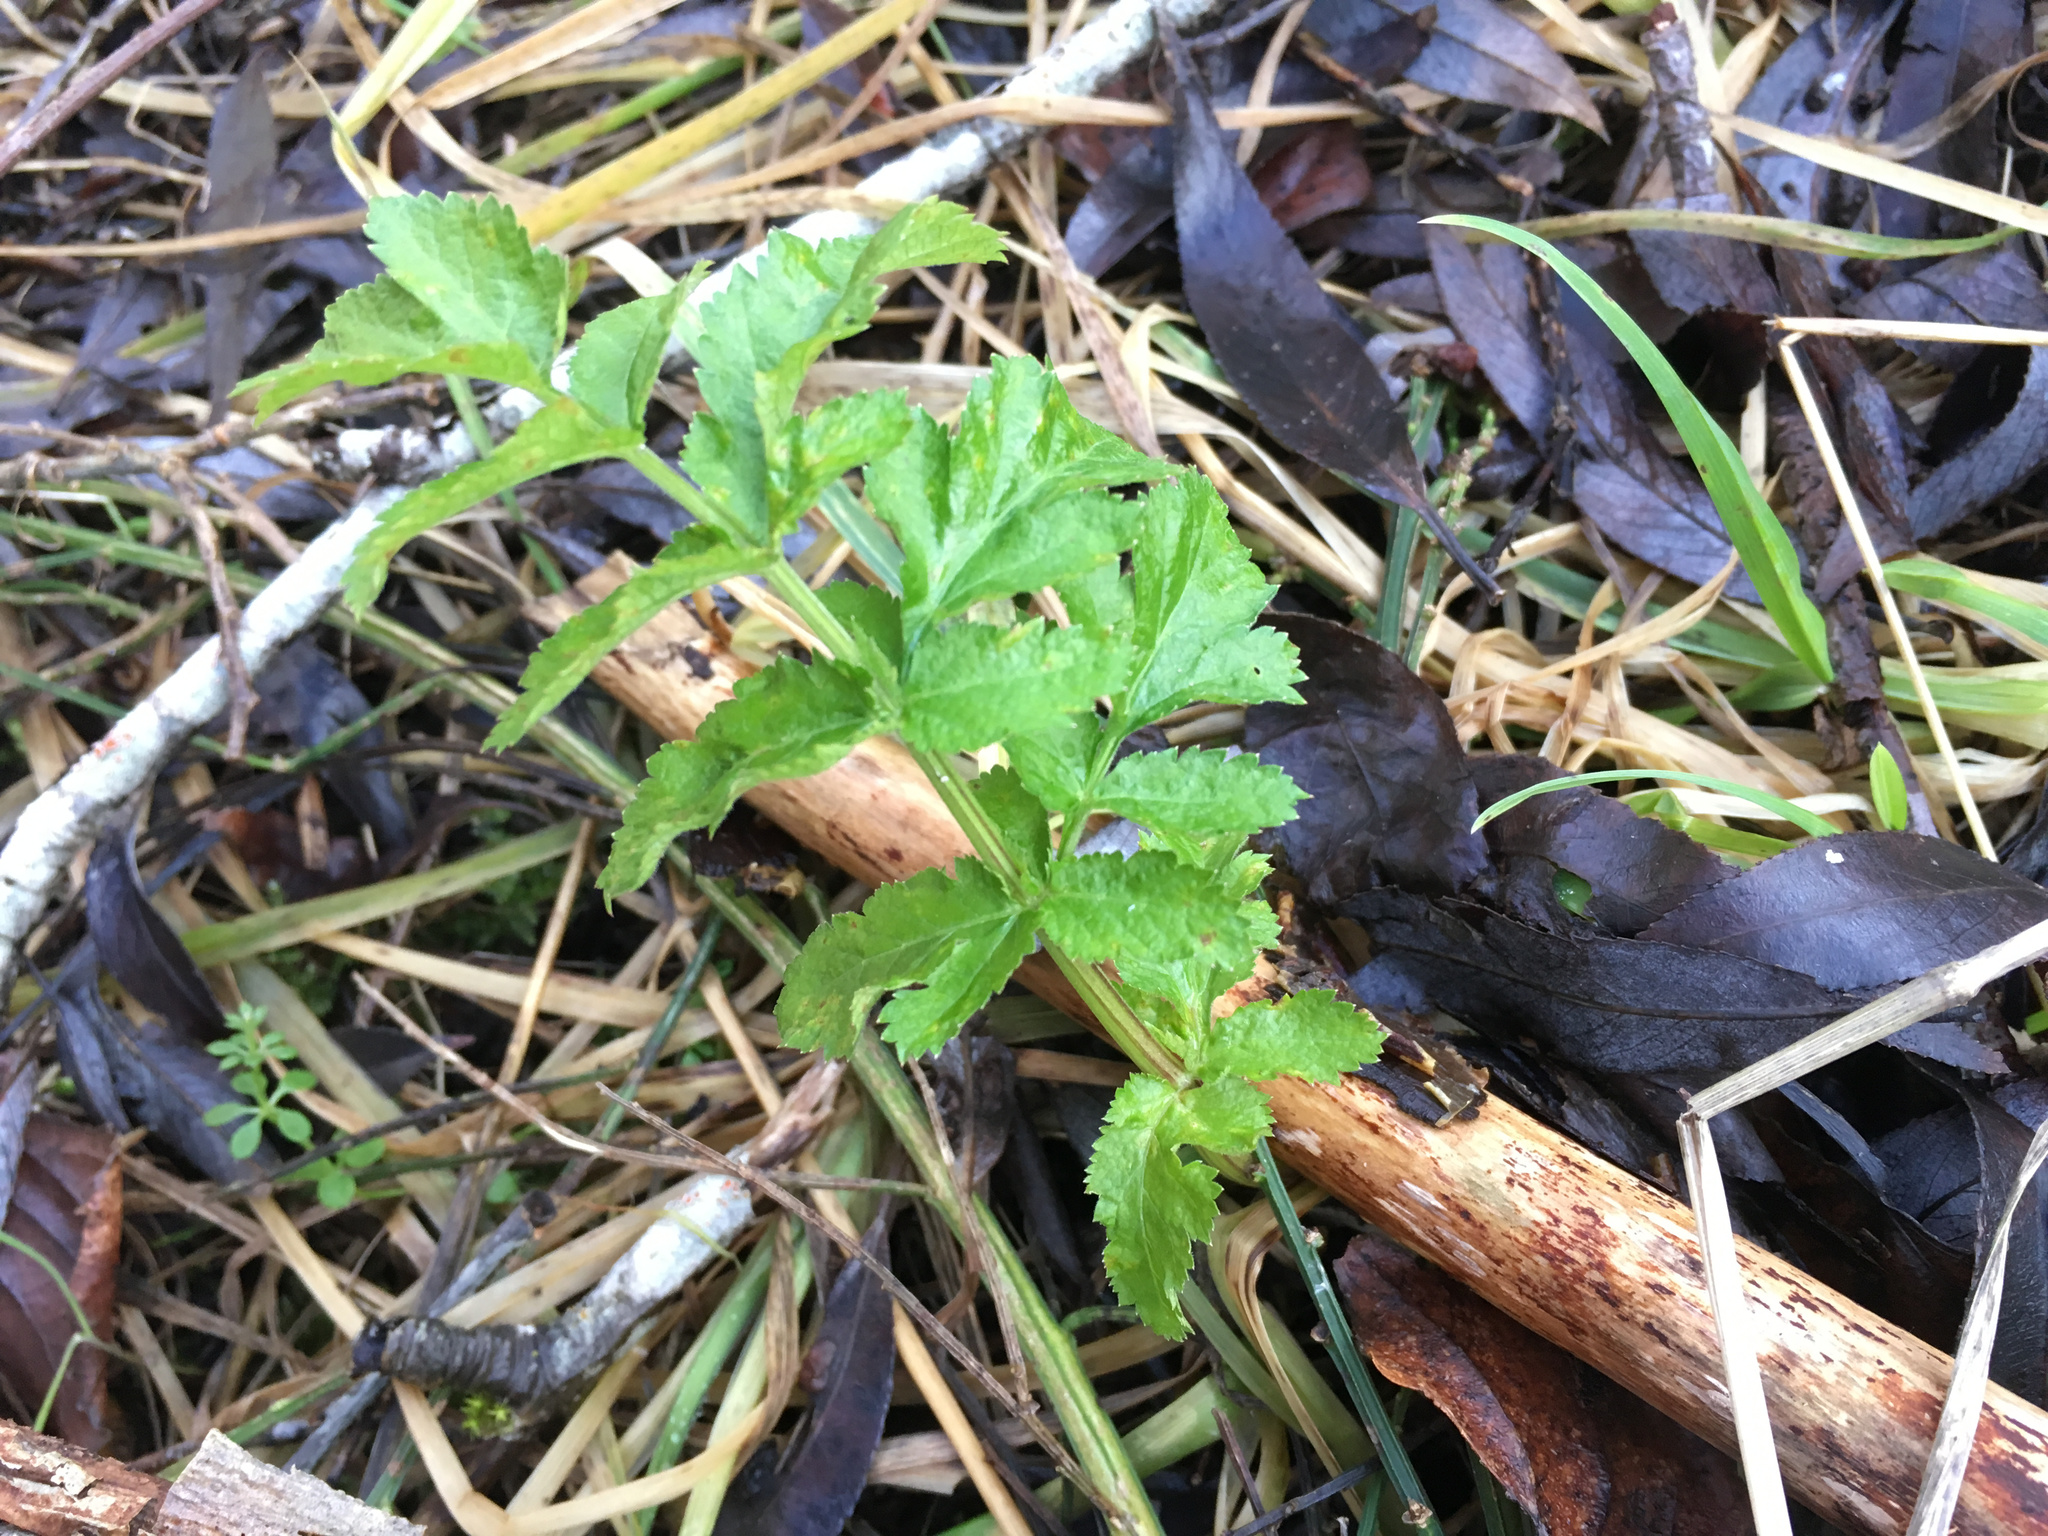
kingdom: Plantae
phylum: Tracheophyta
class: Magnoliopsida
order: Apiales
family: Apiaceae
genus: Pastinaca
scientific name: Pastinaca sativa
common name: Wild parsnip
